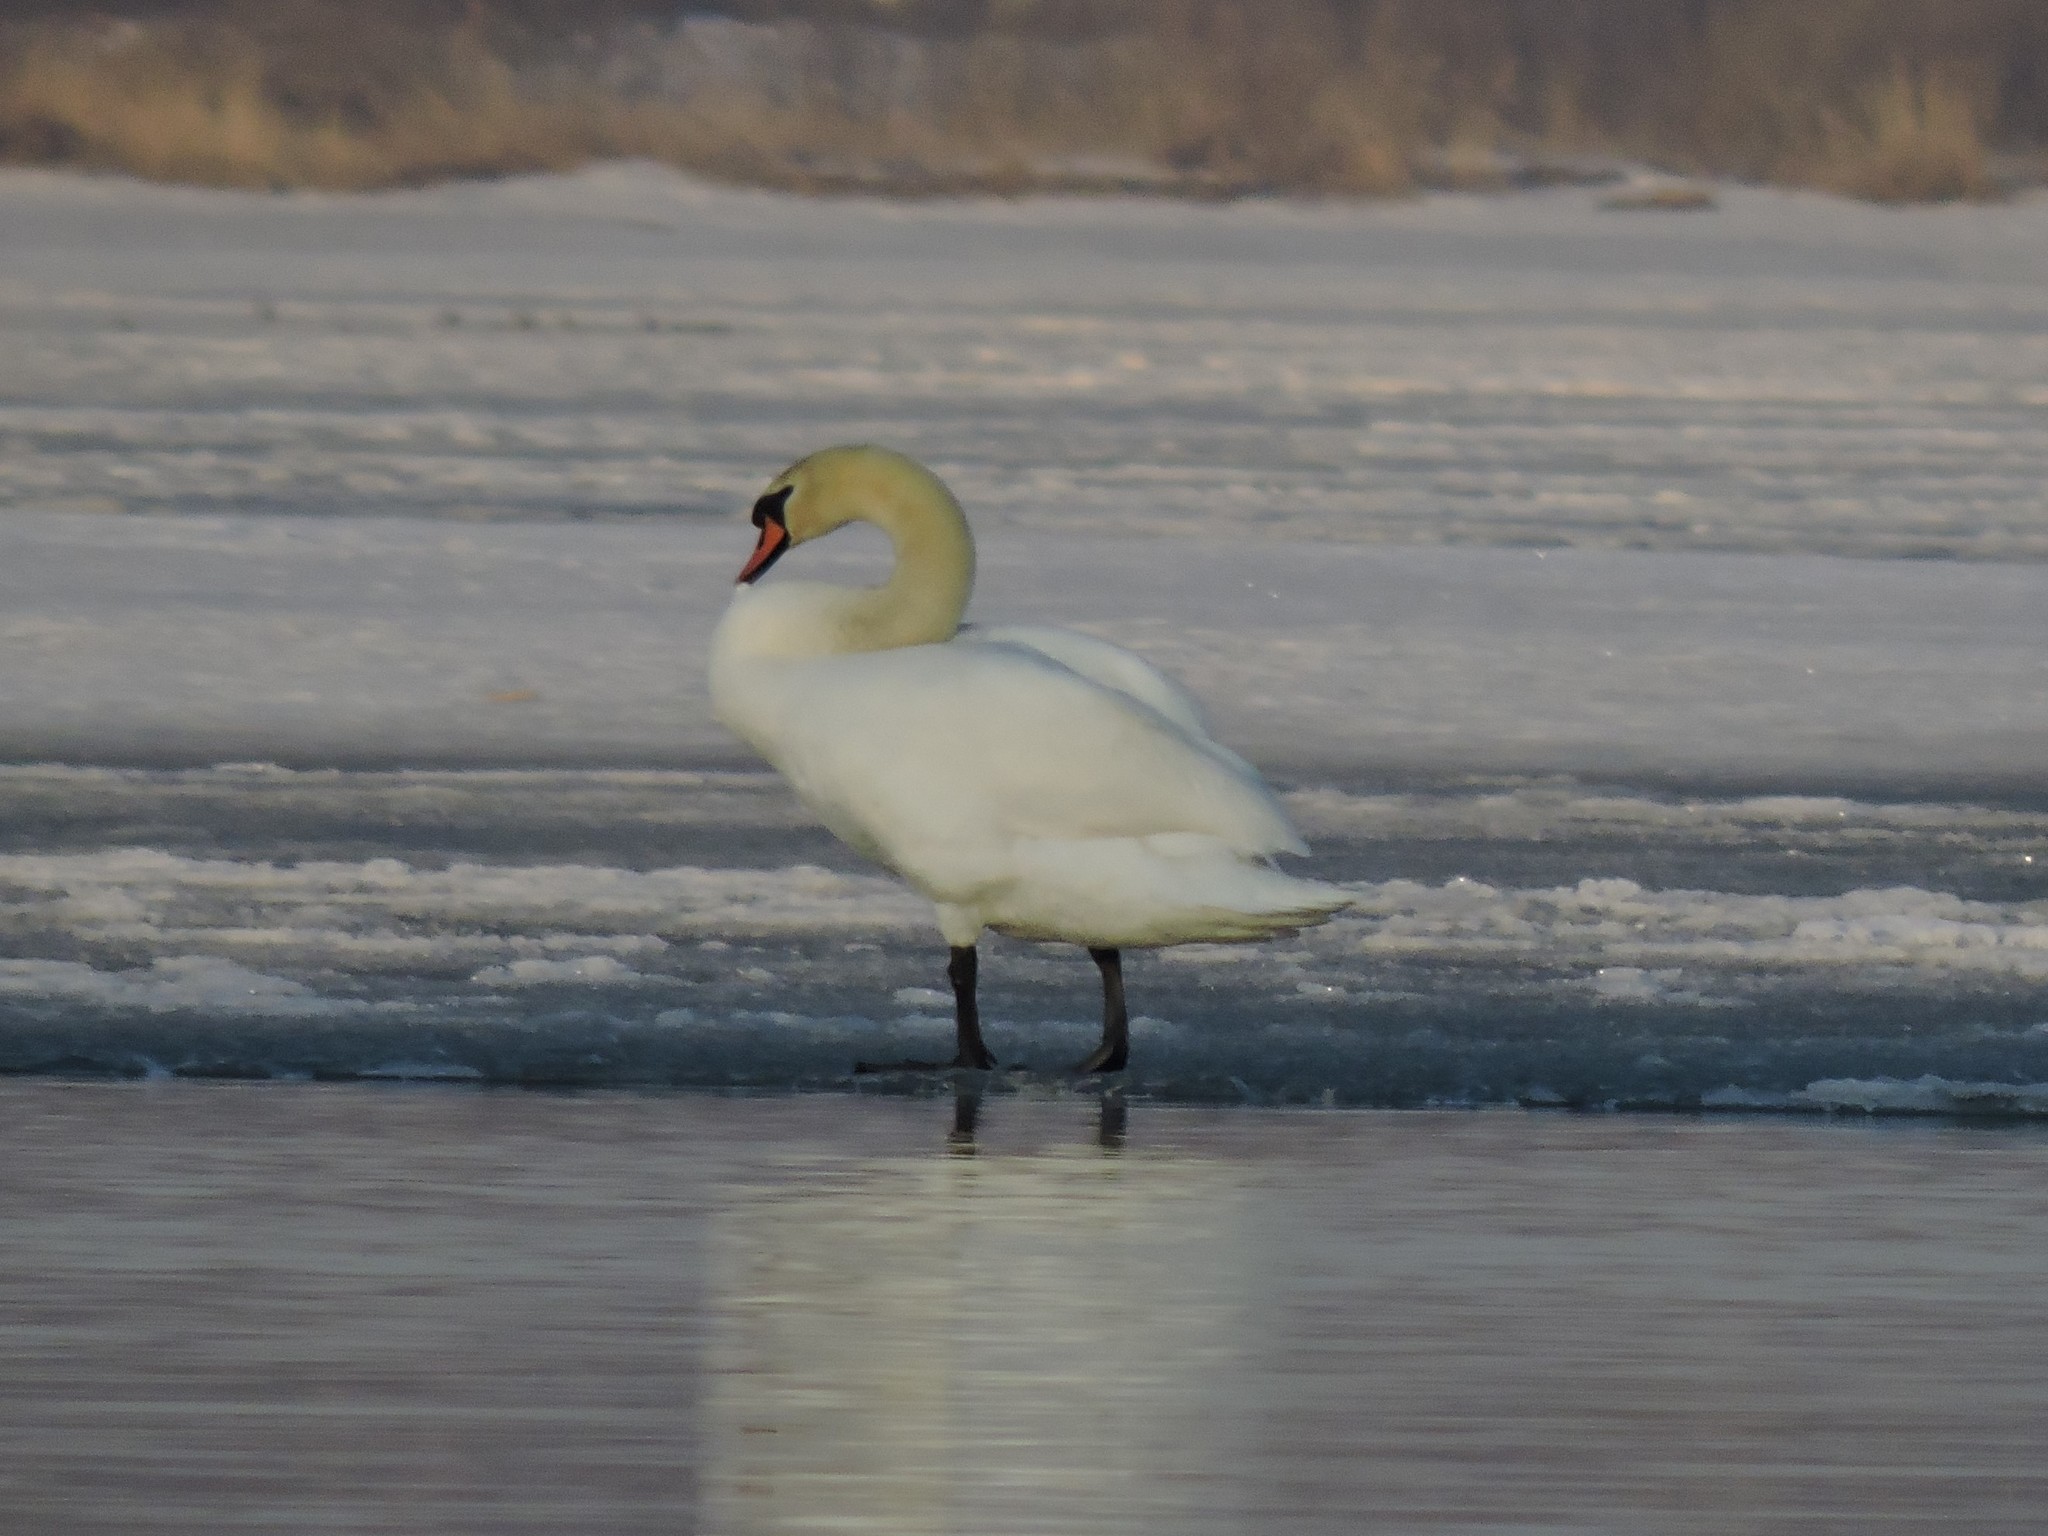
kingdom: Animalia
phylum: Chordata
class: Aves
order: Anseriformes
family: Anatidae
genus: Cygnus
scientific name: Cygnus olor
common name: Mute swan
